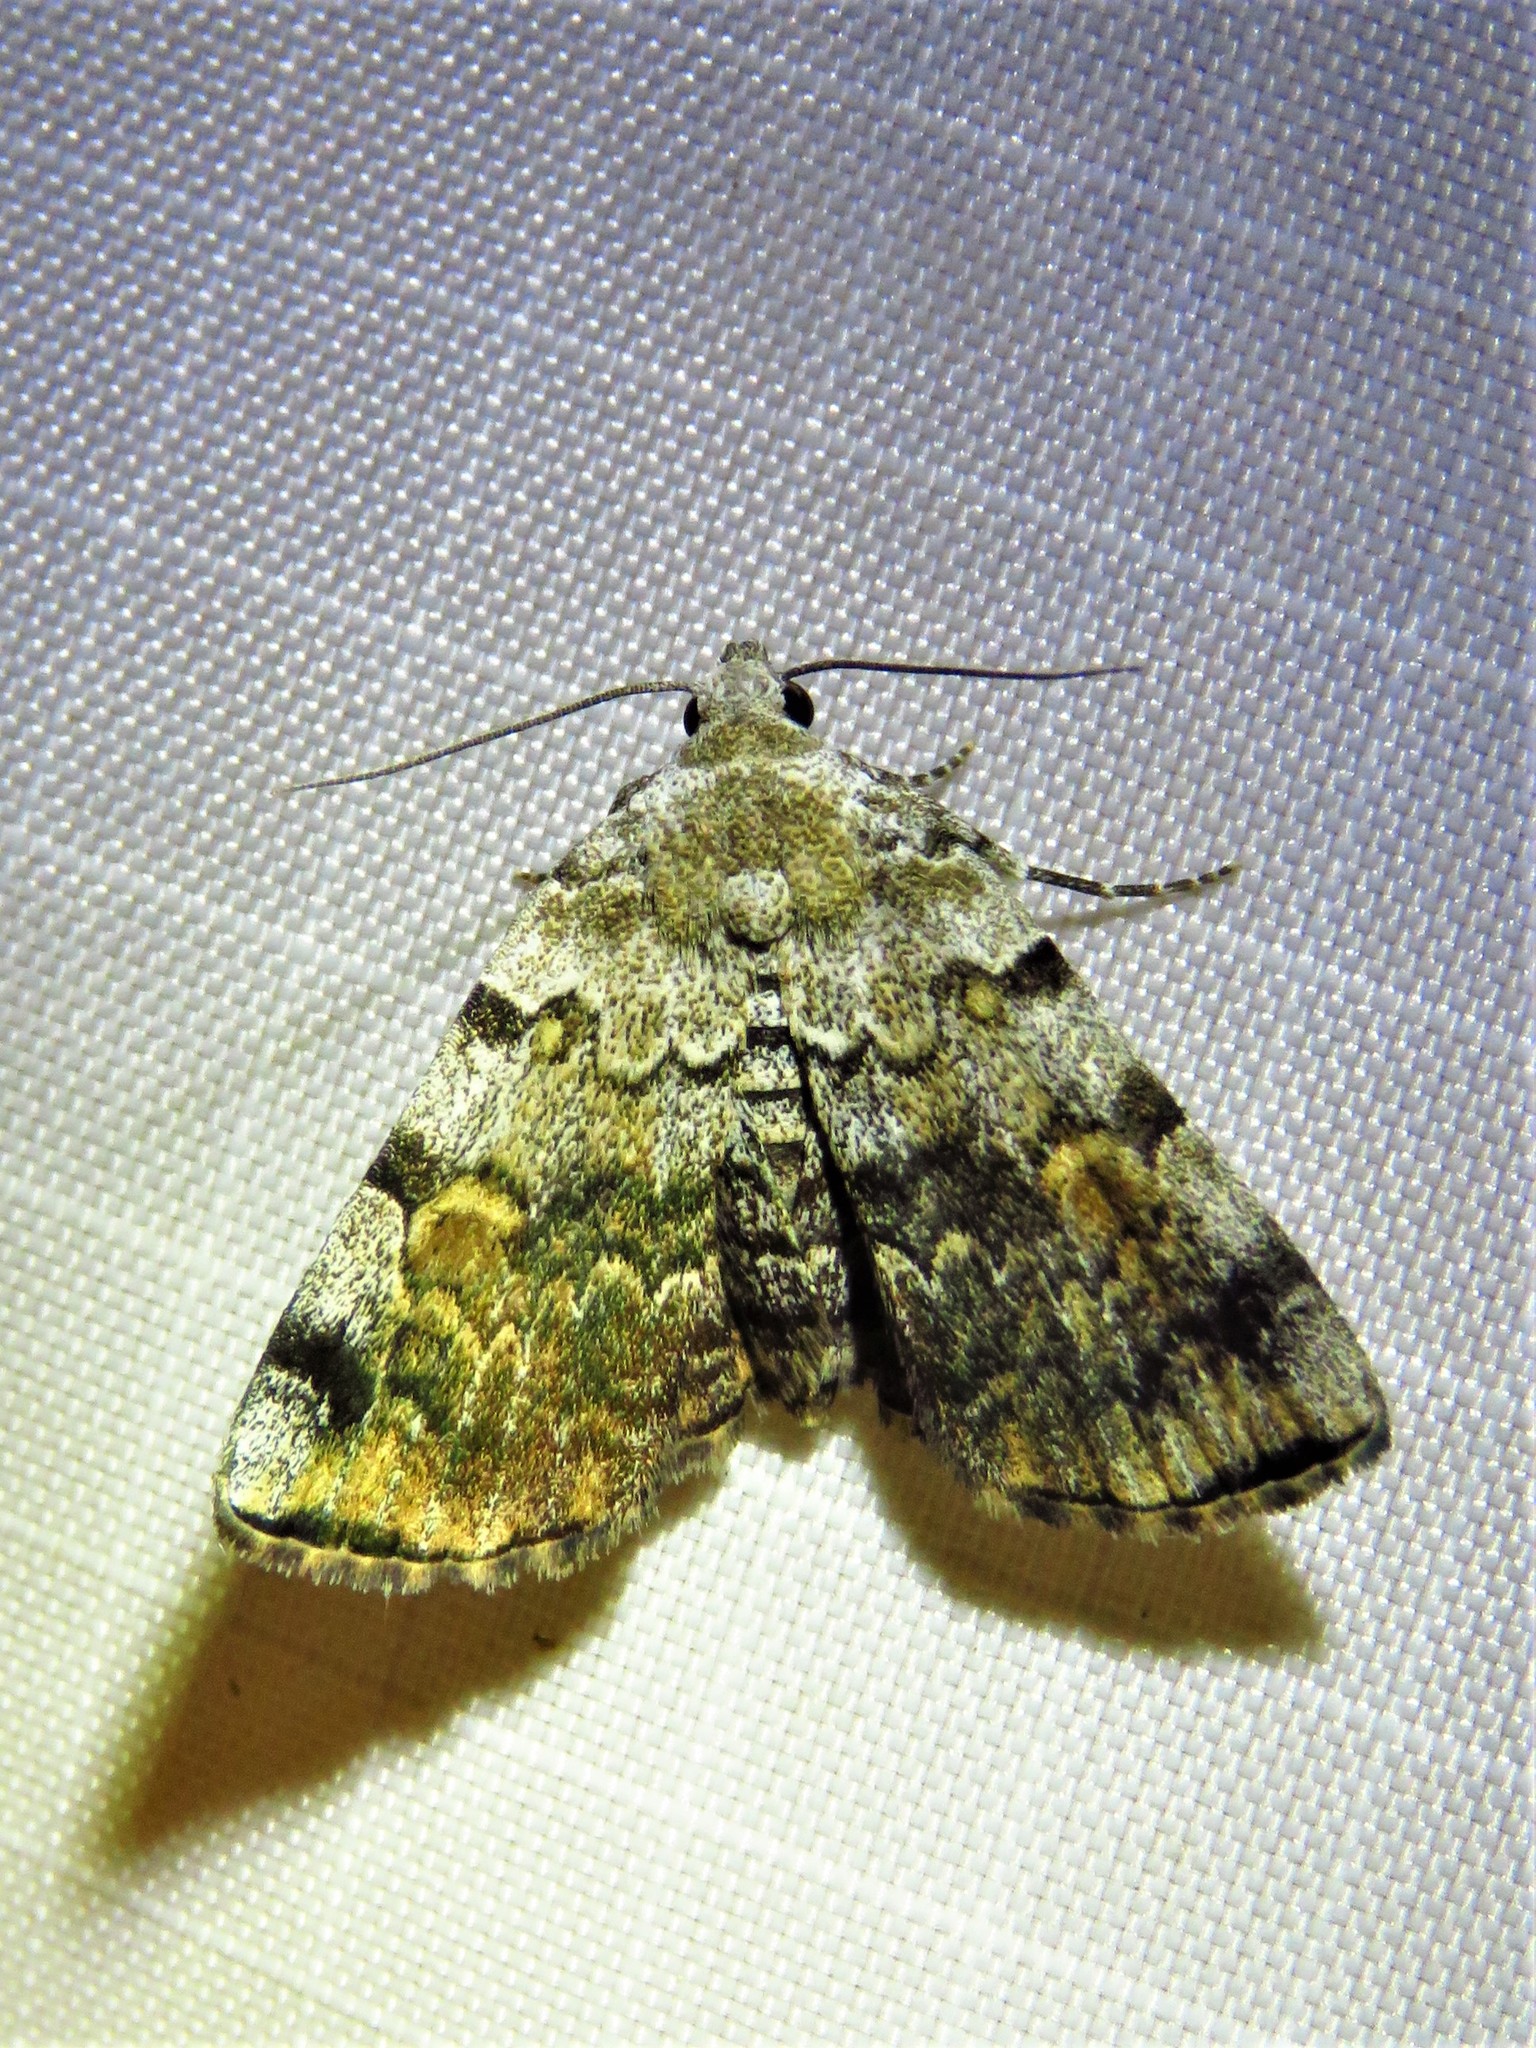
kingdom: Animalia
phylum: Arthropoda
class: Insecta
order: Lepidoptera
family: Erebidae
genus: Idia
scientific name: Idia americalis
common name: American idia moth
